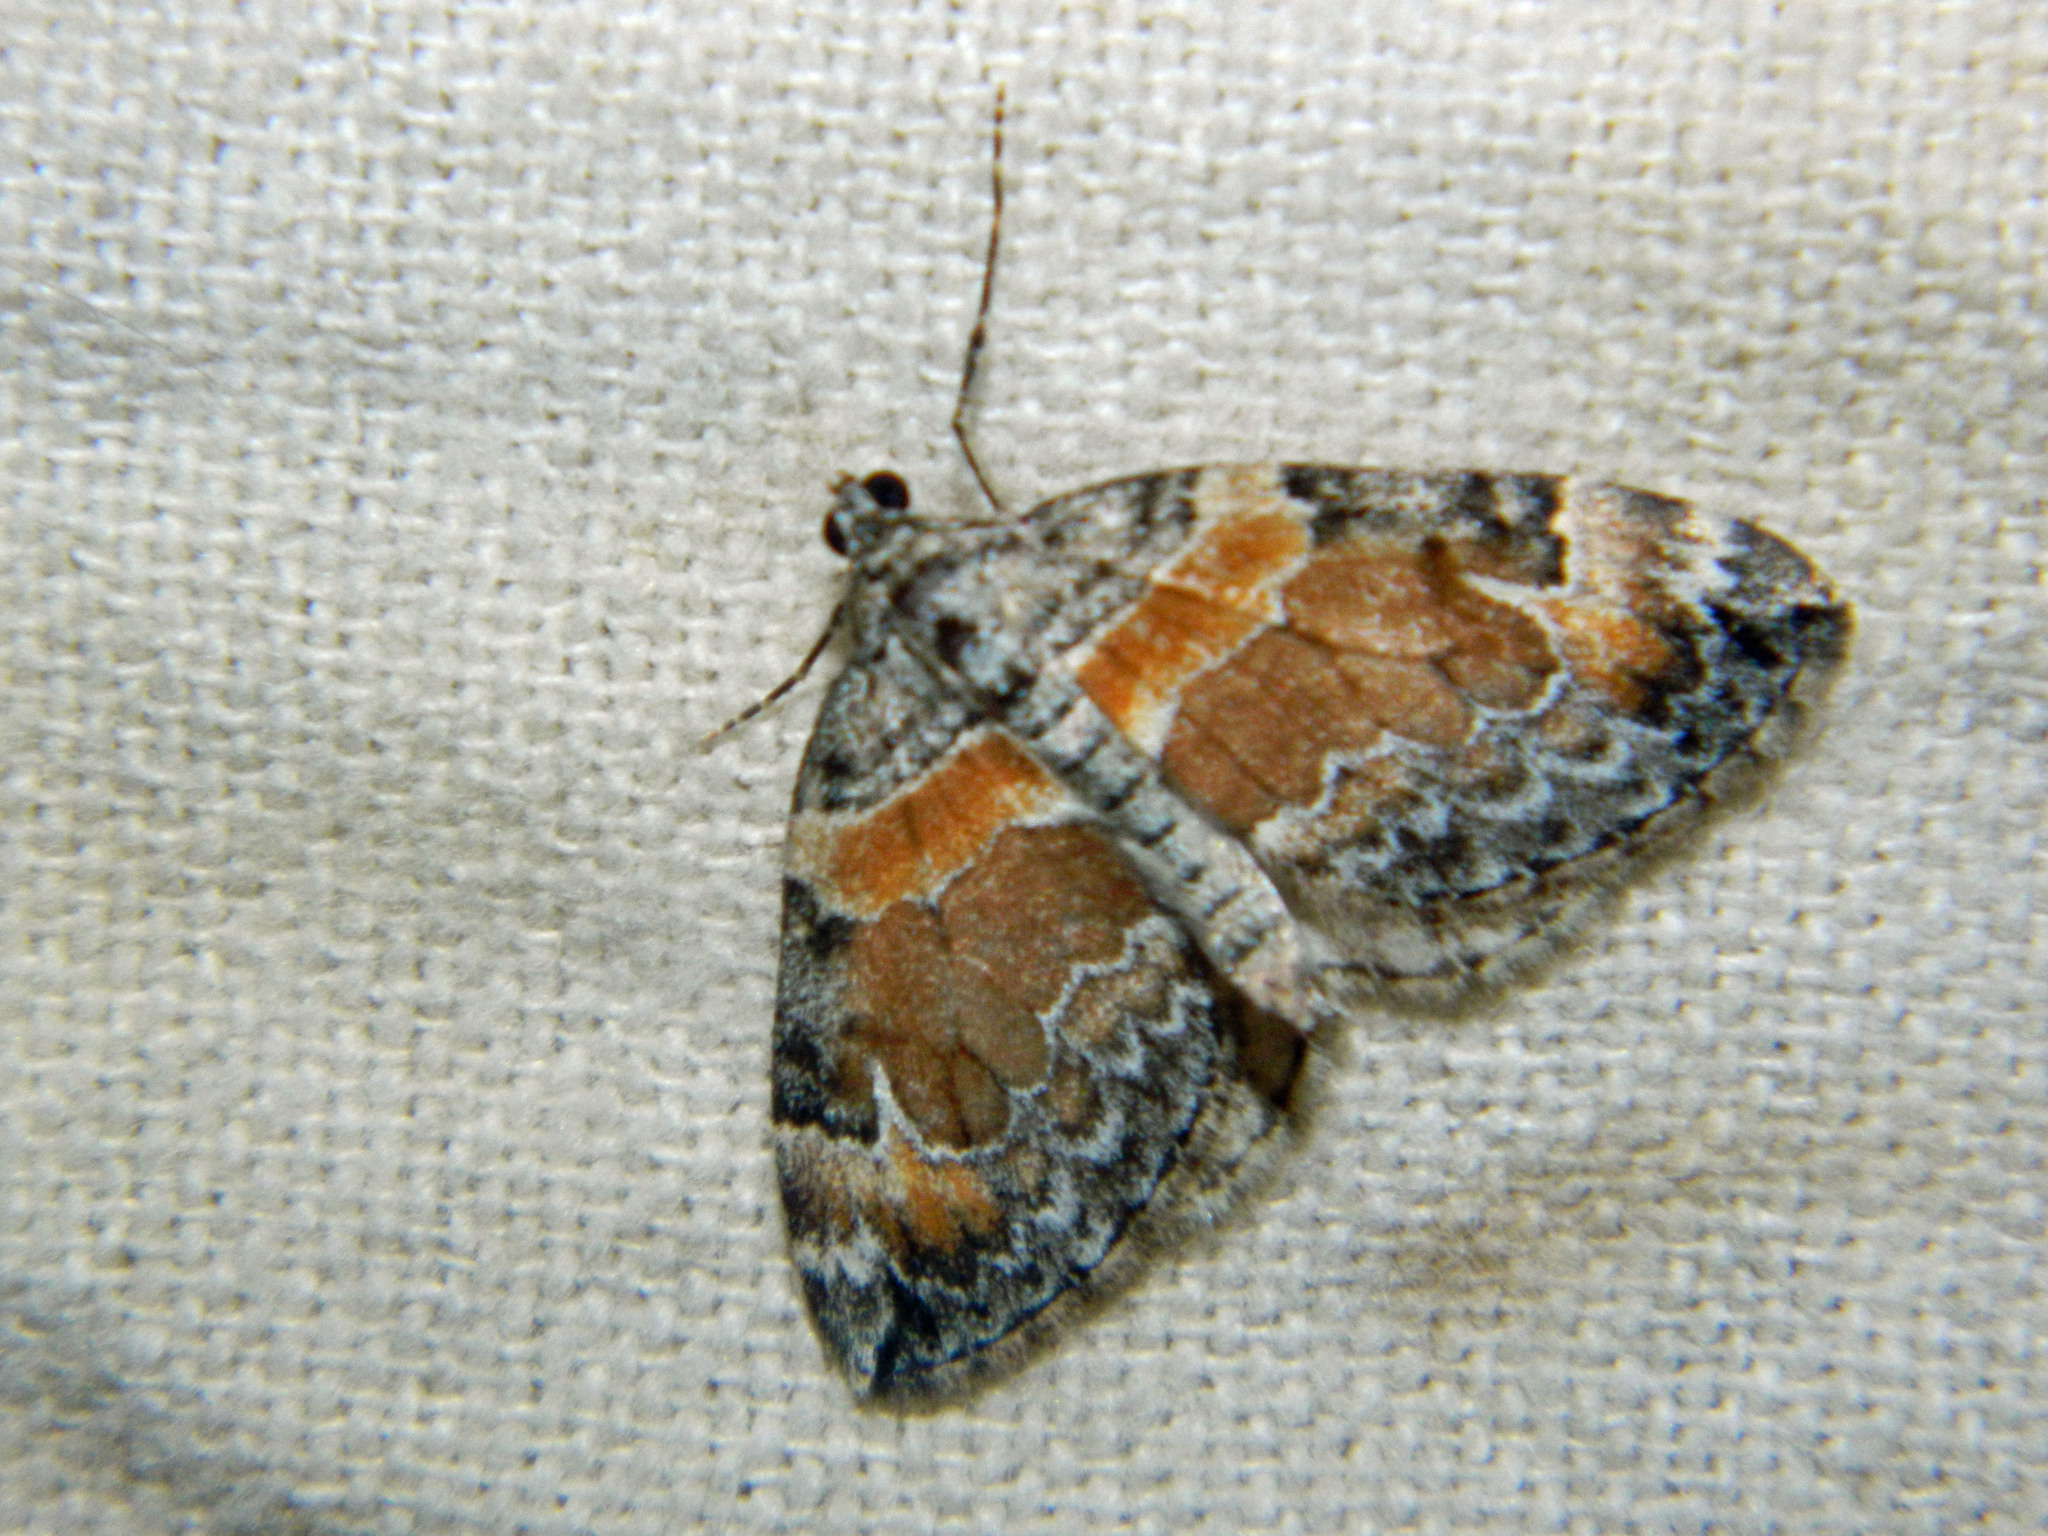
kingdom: Animalia
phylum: Arthropoda
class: Insecta
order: Lepidoptera
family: Geometridae
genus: Dysstroma
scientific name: Dysstroma hersiliata
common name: Orange-barred carpet
